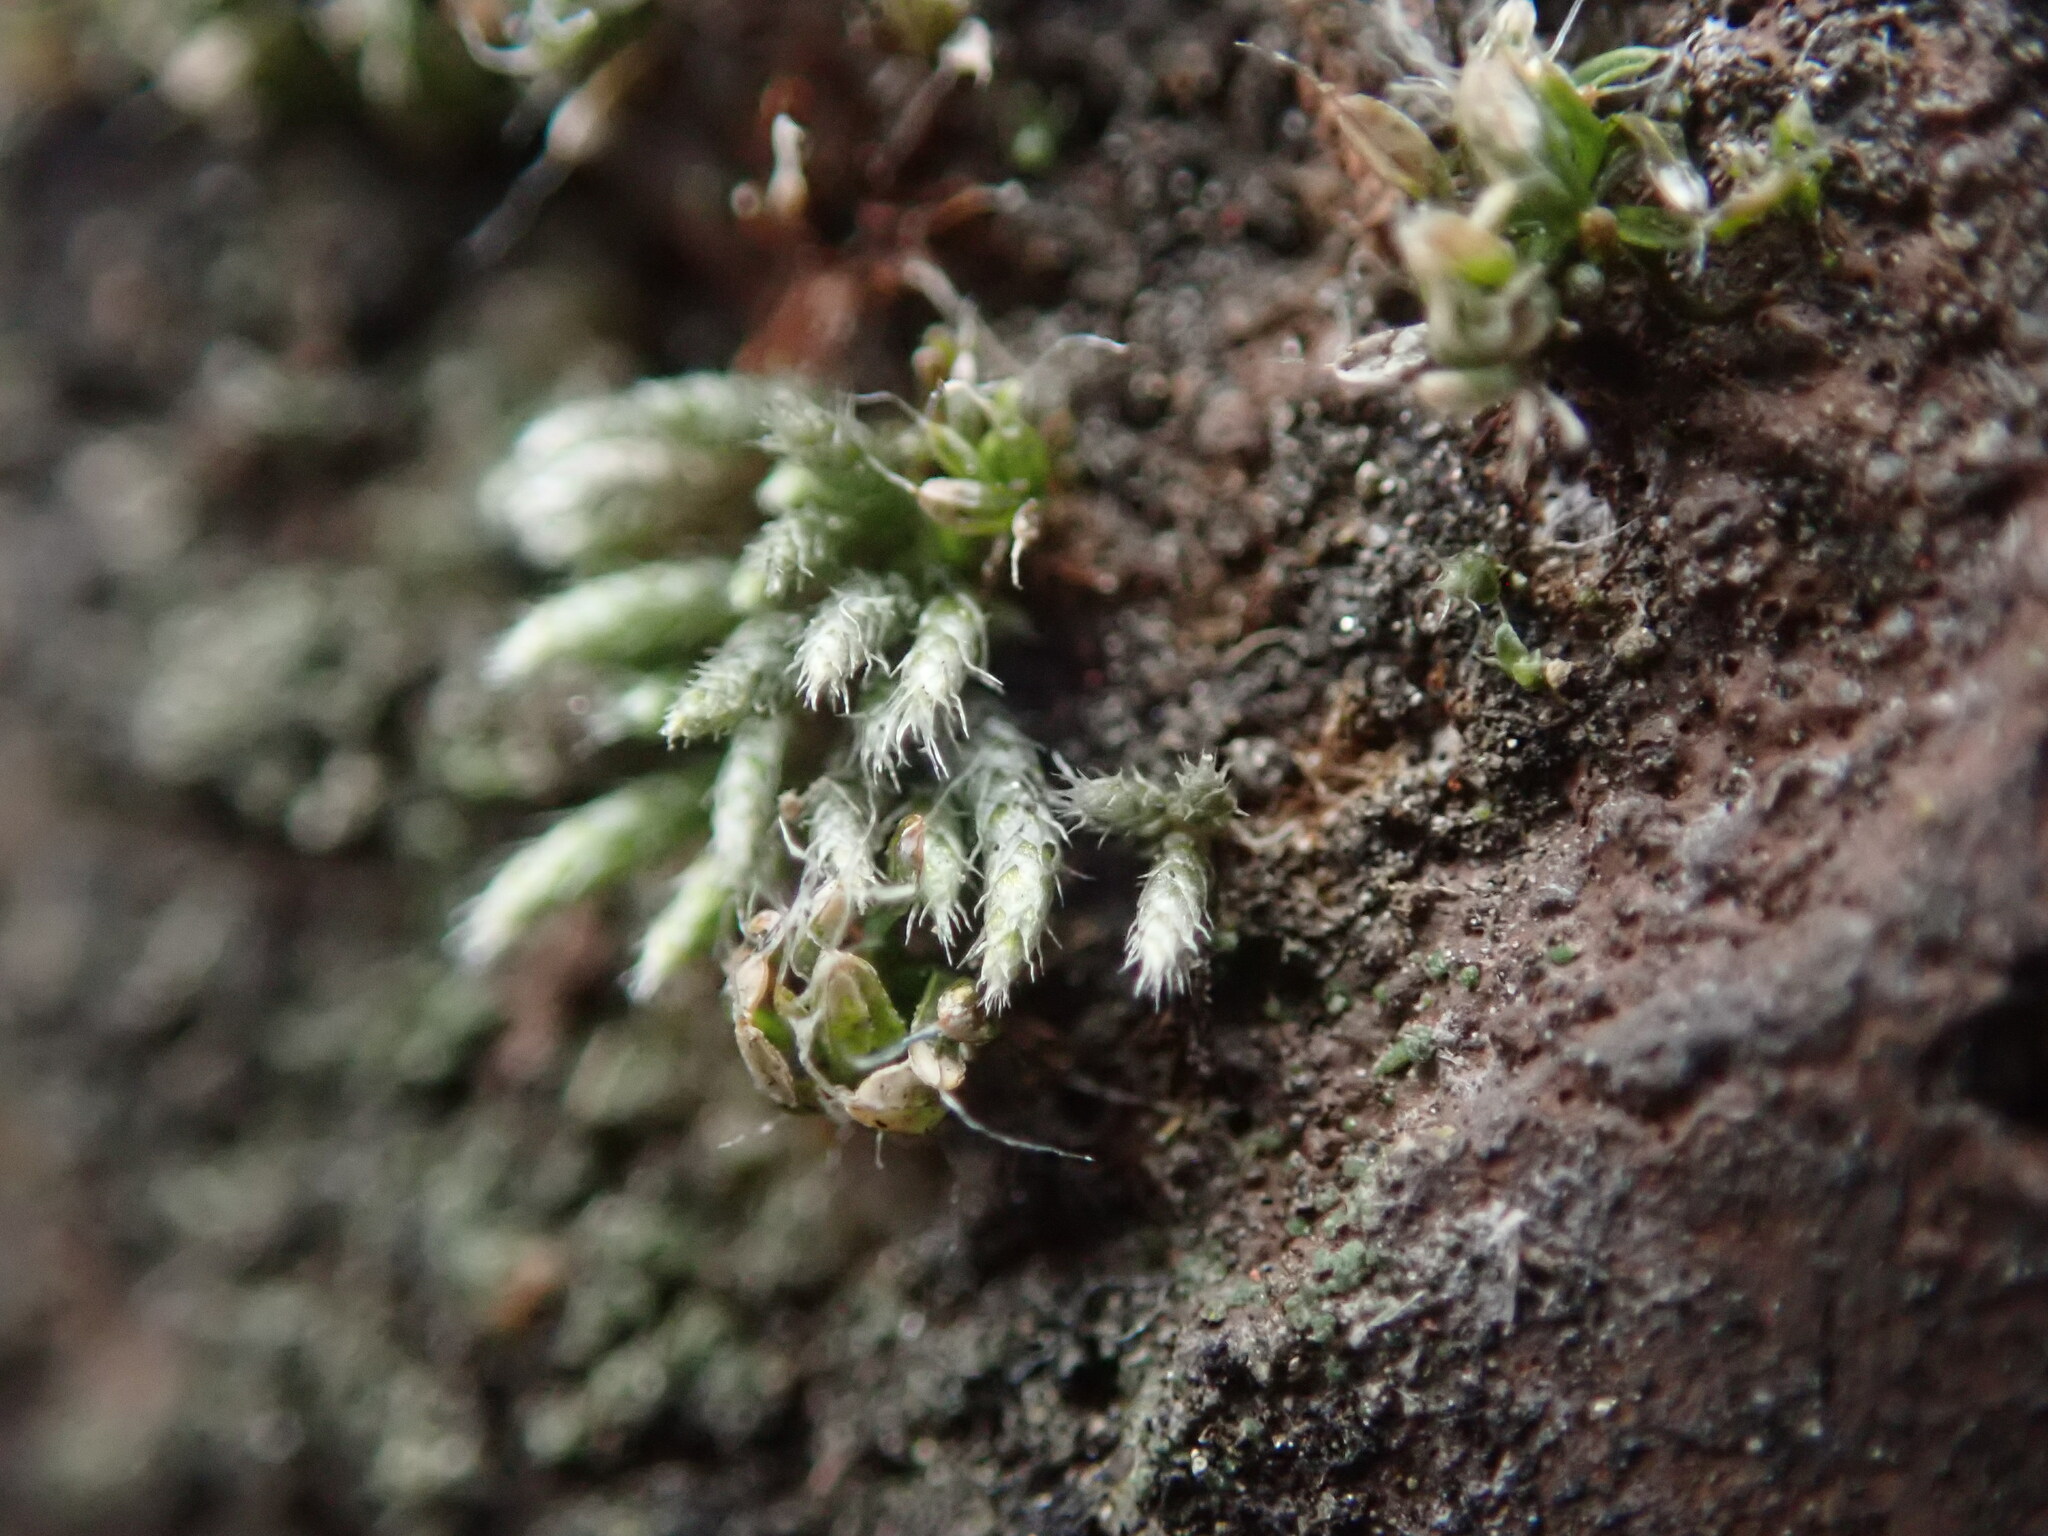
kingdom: Plantae
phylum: Bryophyta
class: Bryopsida
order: Bryales
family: Bryaceae
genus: Bryum
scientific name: Bryum argenteum
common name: Silver-moss
